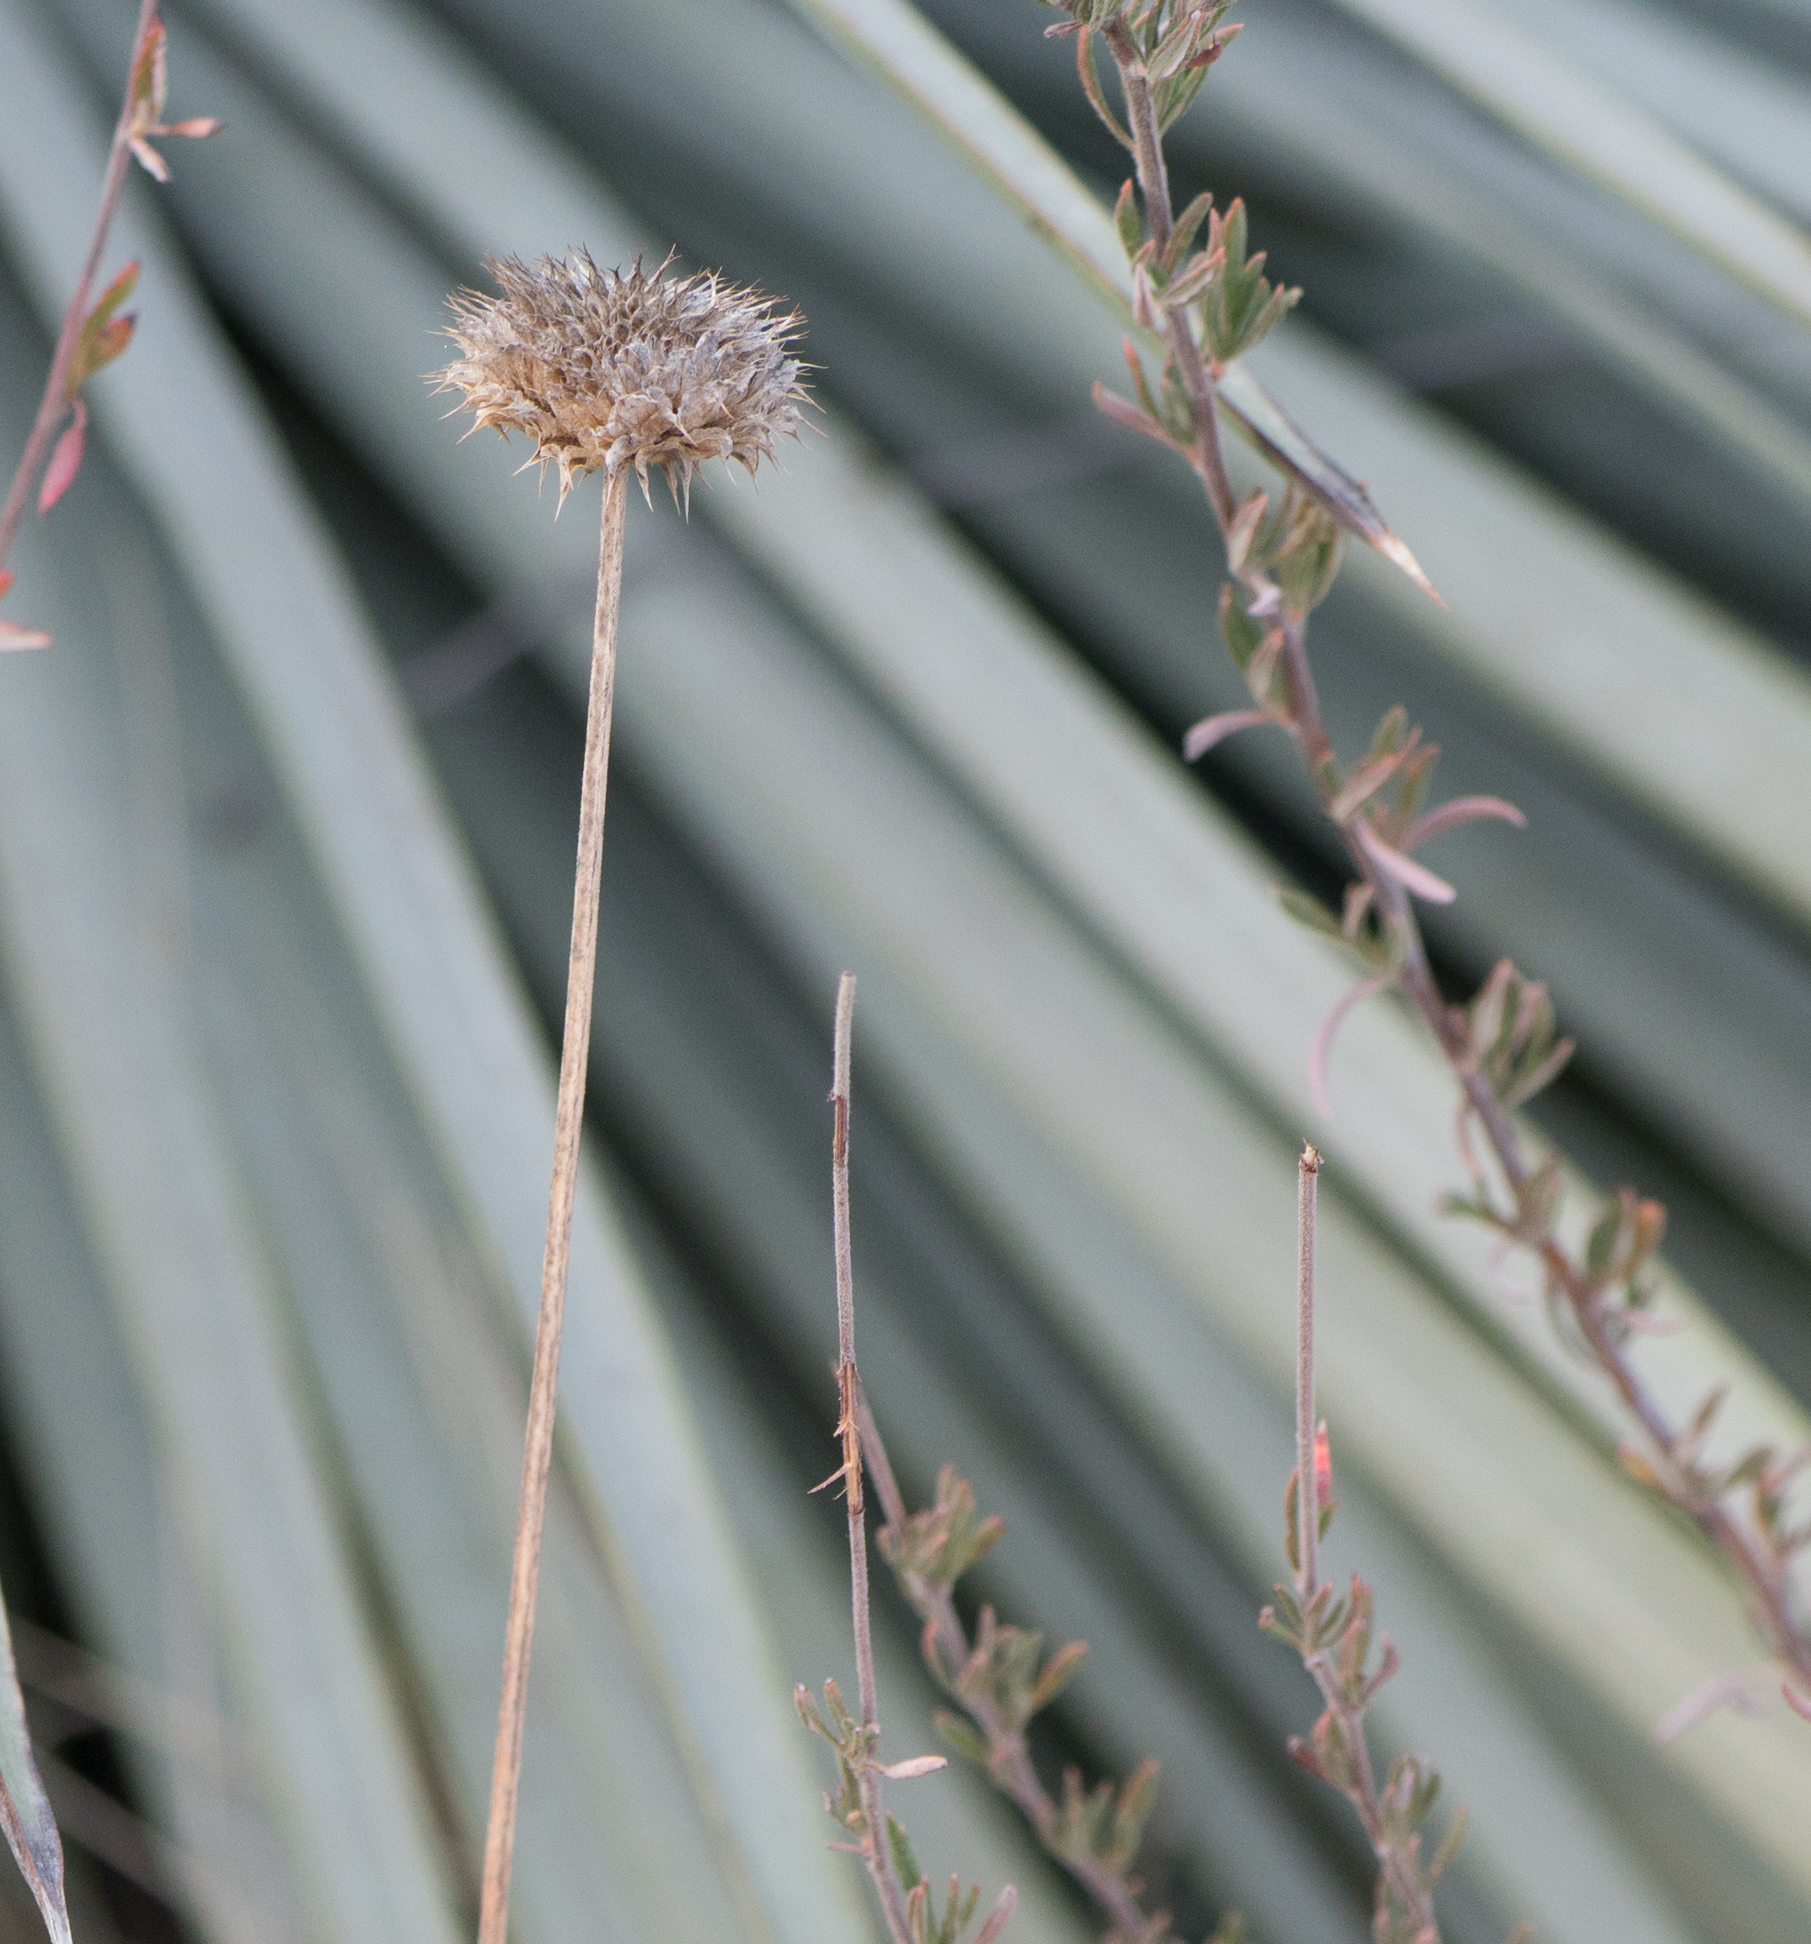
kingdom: Plantae
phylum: Tracheophyta
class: Magnoliopsida
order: Lamiales
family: Lamiaceae
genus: Salvia
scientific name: Salvia columbariae
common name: Chia
